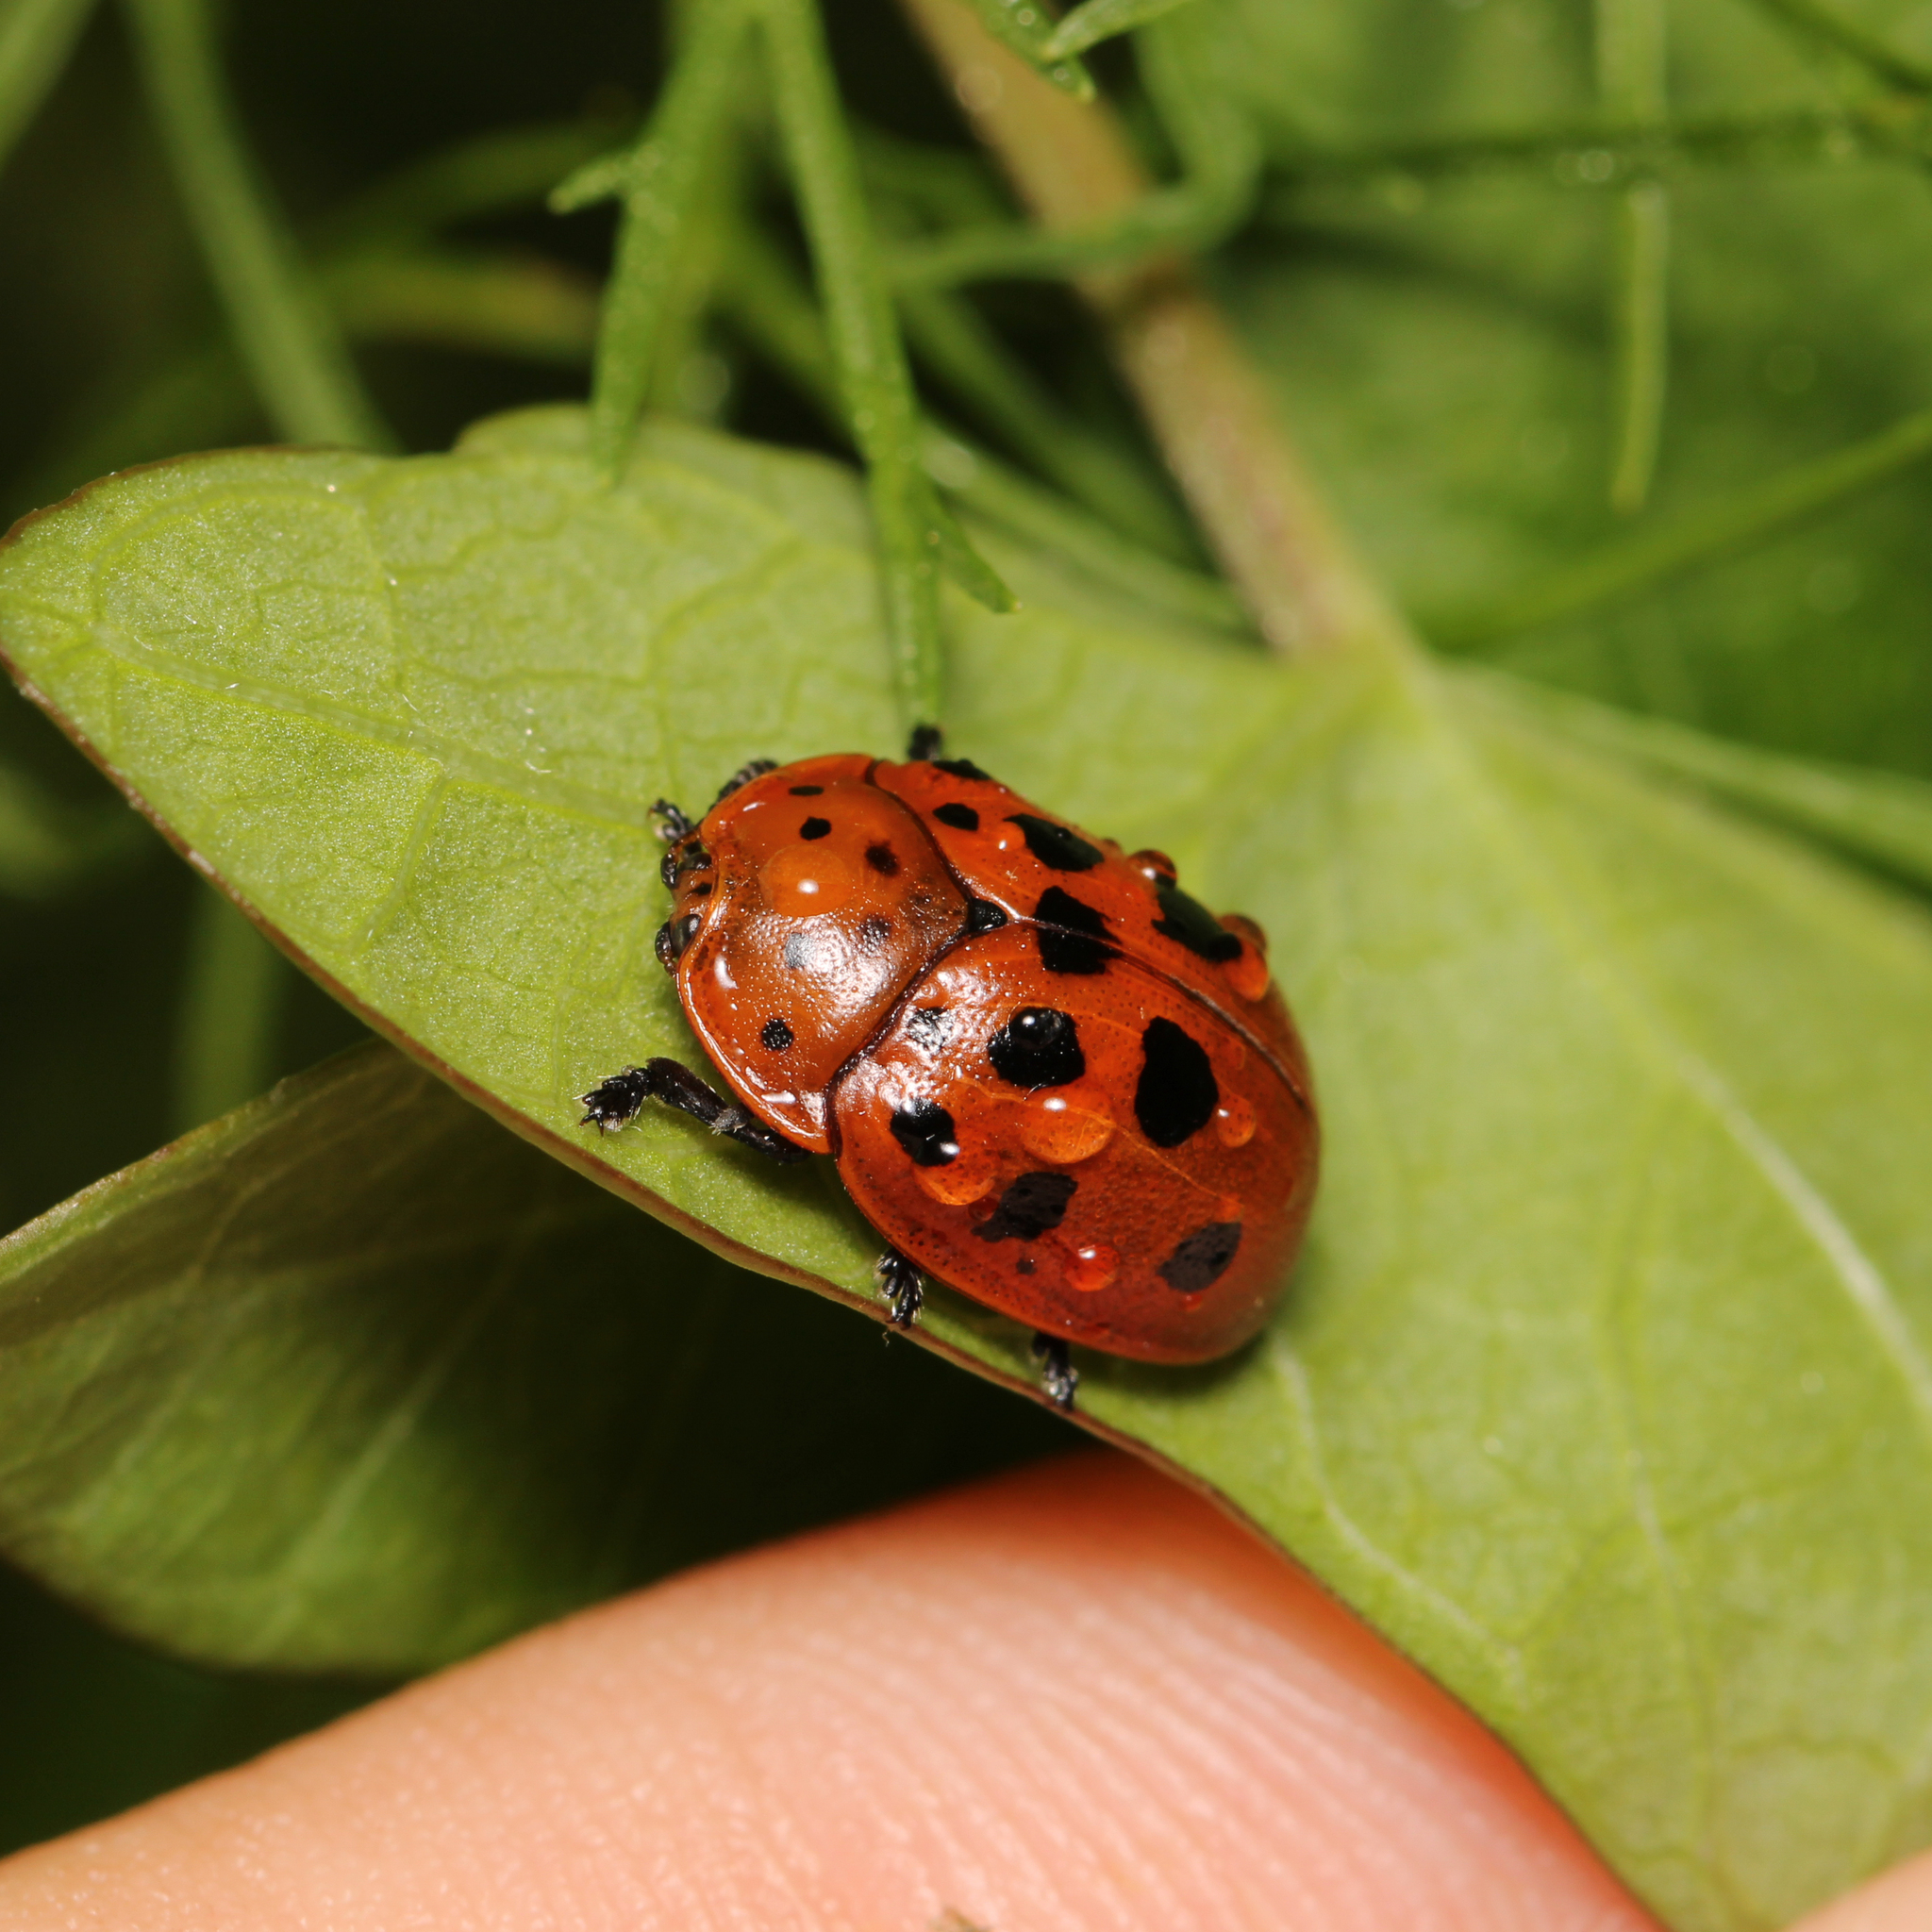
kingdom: Animalia
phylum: Arthropoda
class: Insecta
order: Coleoptera
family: Chrysomelidae
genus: Chelymorpha
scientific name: Chelymorpha cassidea
